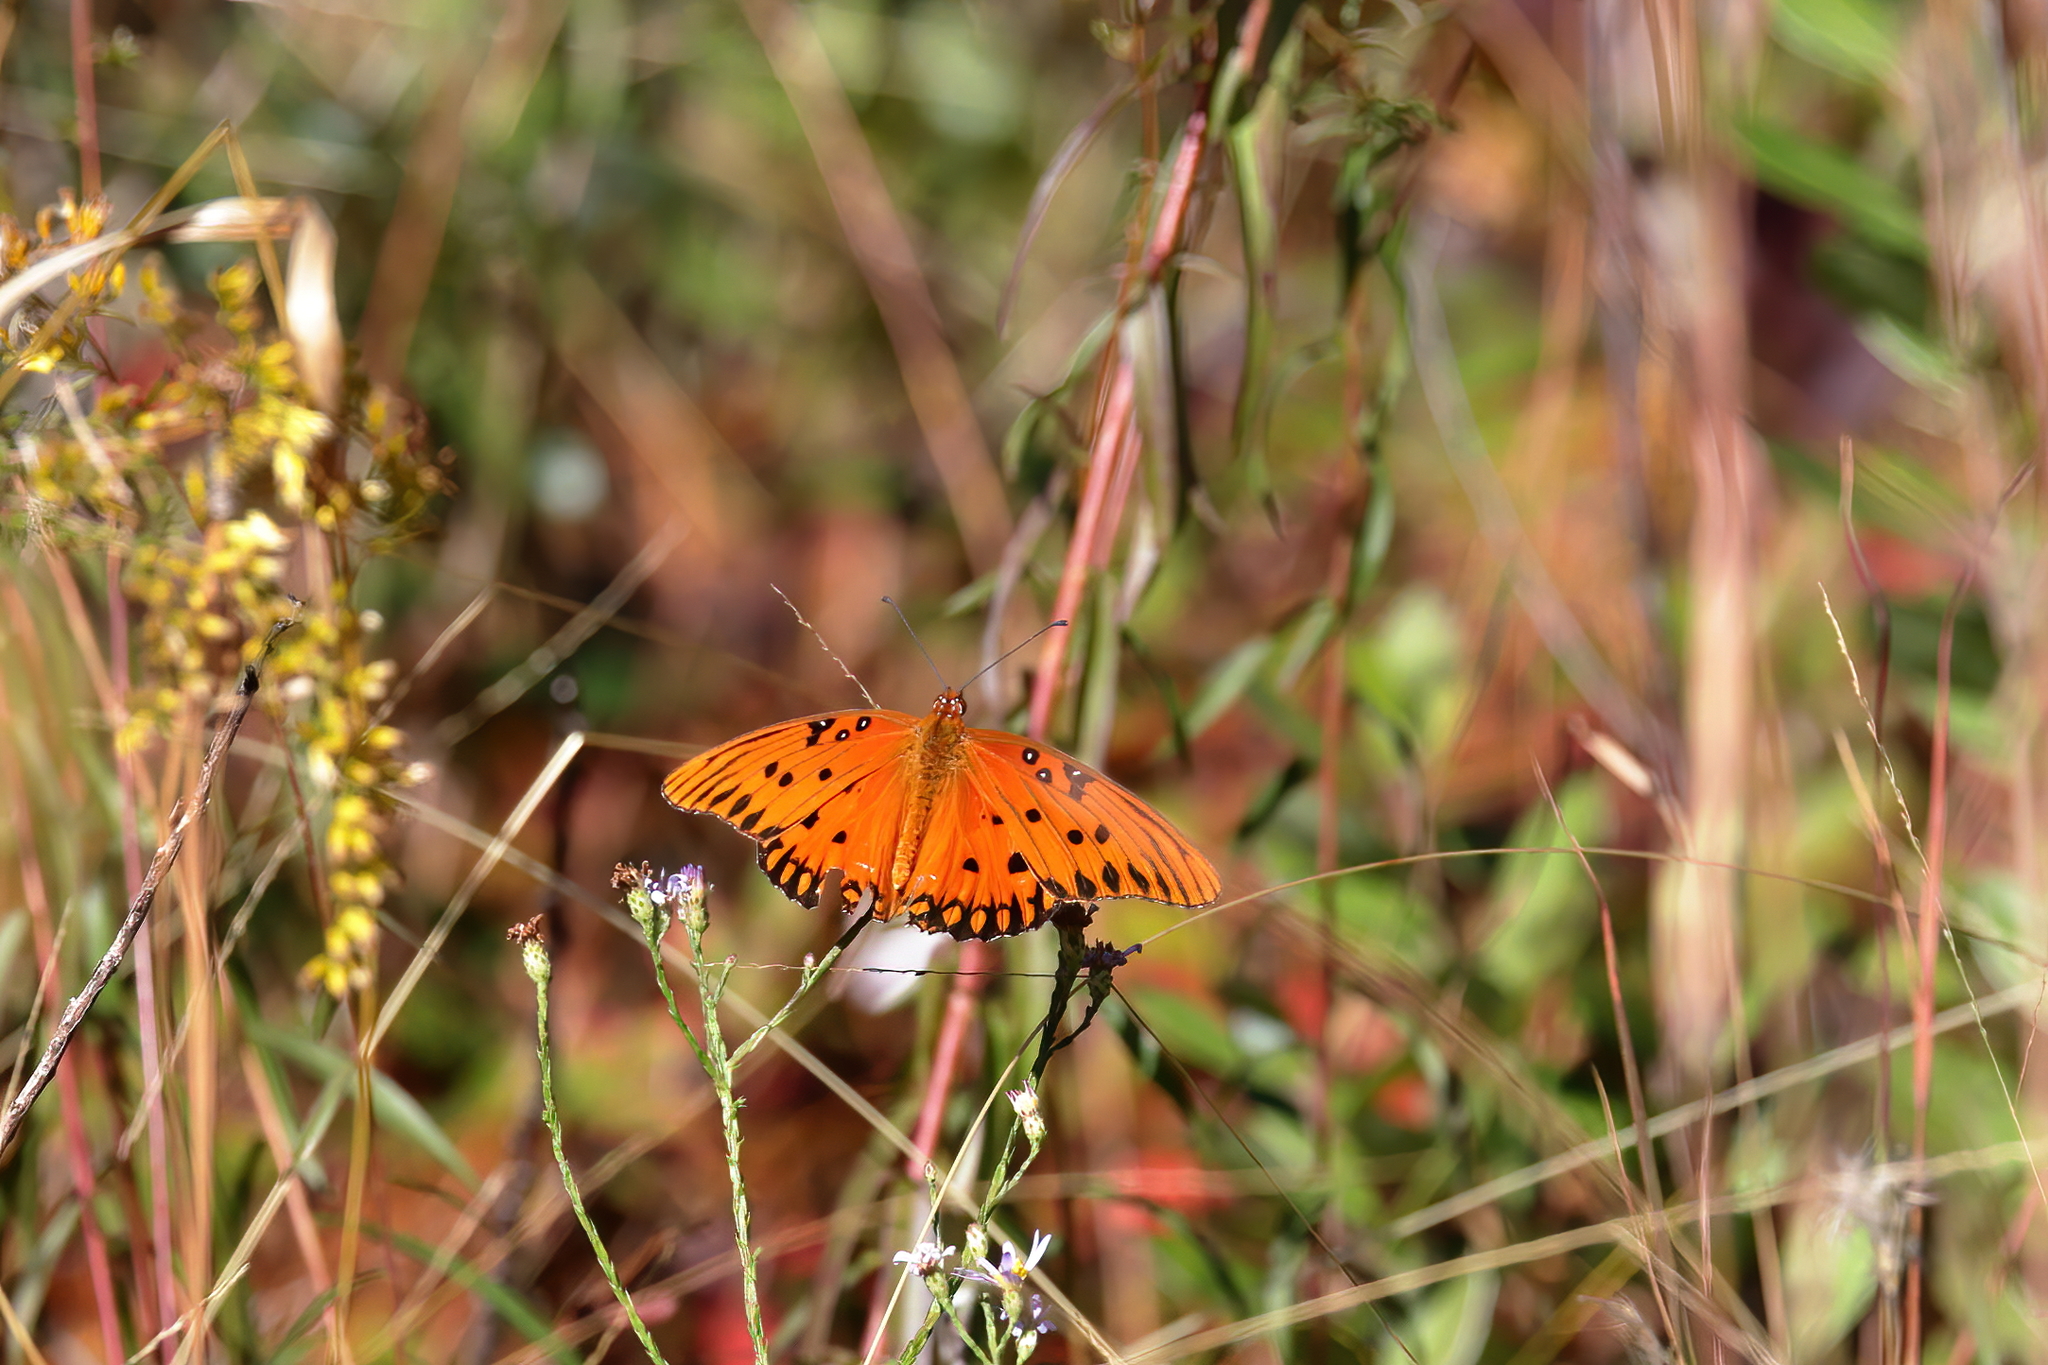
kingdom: Animalia
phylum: Arthropoda
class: Insecta
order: Lepidoptera
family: Nymphalidae
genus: Dione
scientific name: Dione vanillae
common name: Gulf fritillary
